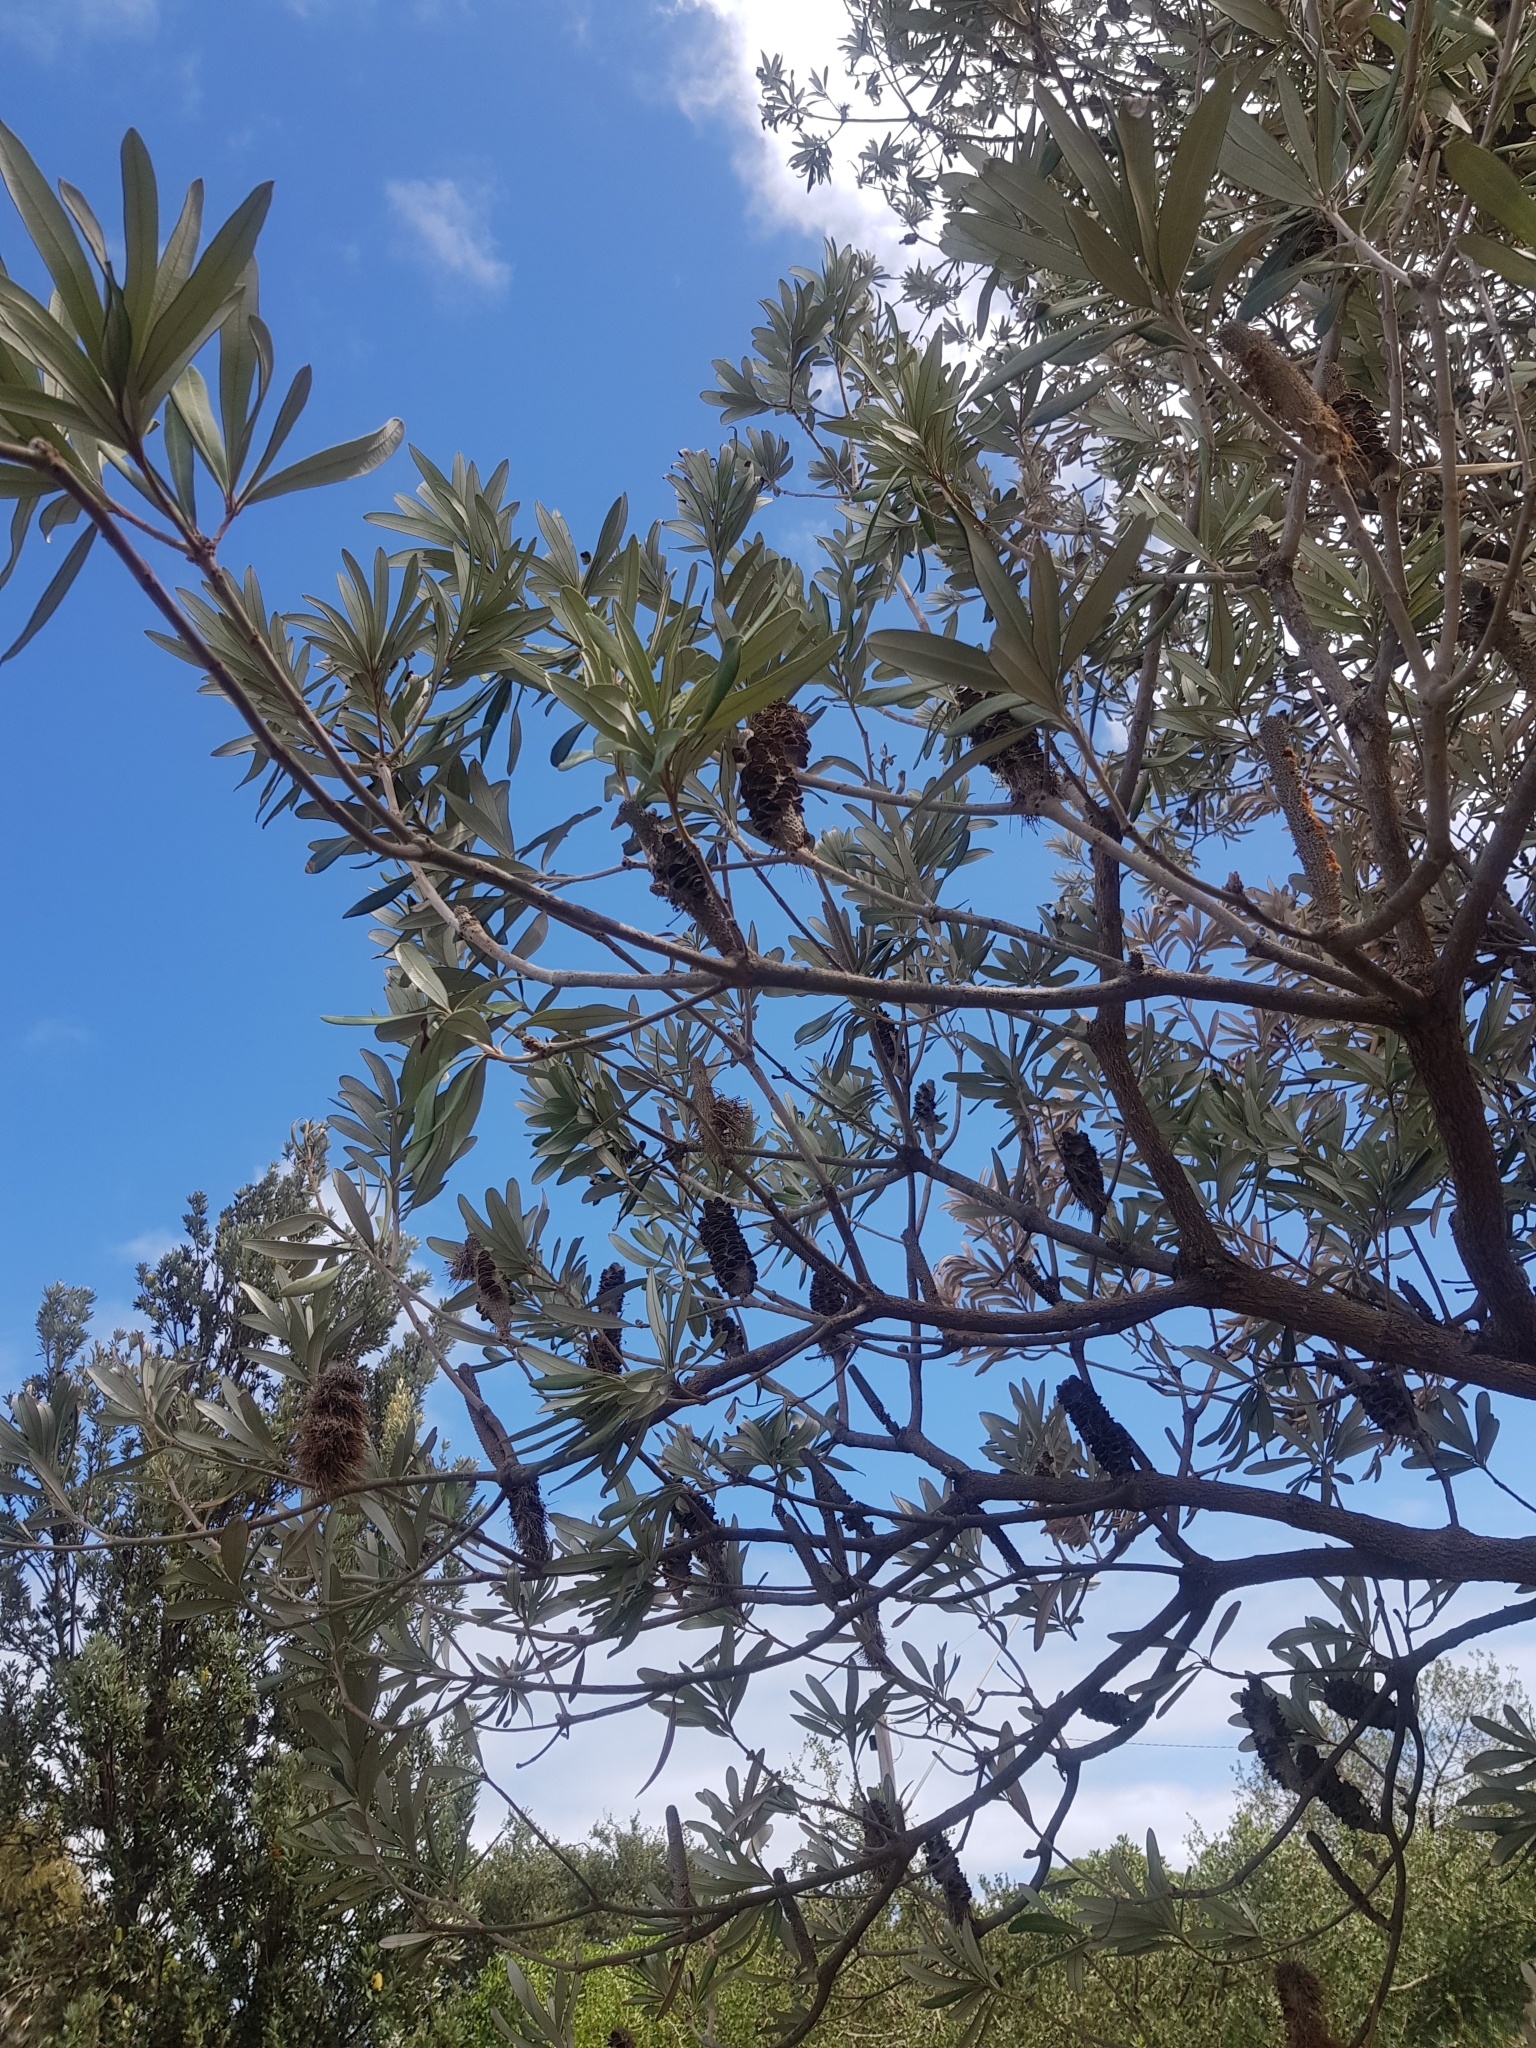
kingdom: Plantae
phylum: Tracheophyta
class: Magnoliopsida
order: Proteales
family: Proteaceae
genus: Banksia
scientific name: Banksia integrifolia
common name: White-honeysuckle
